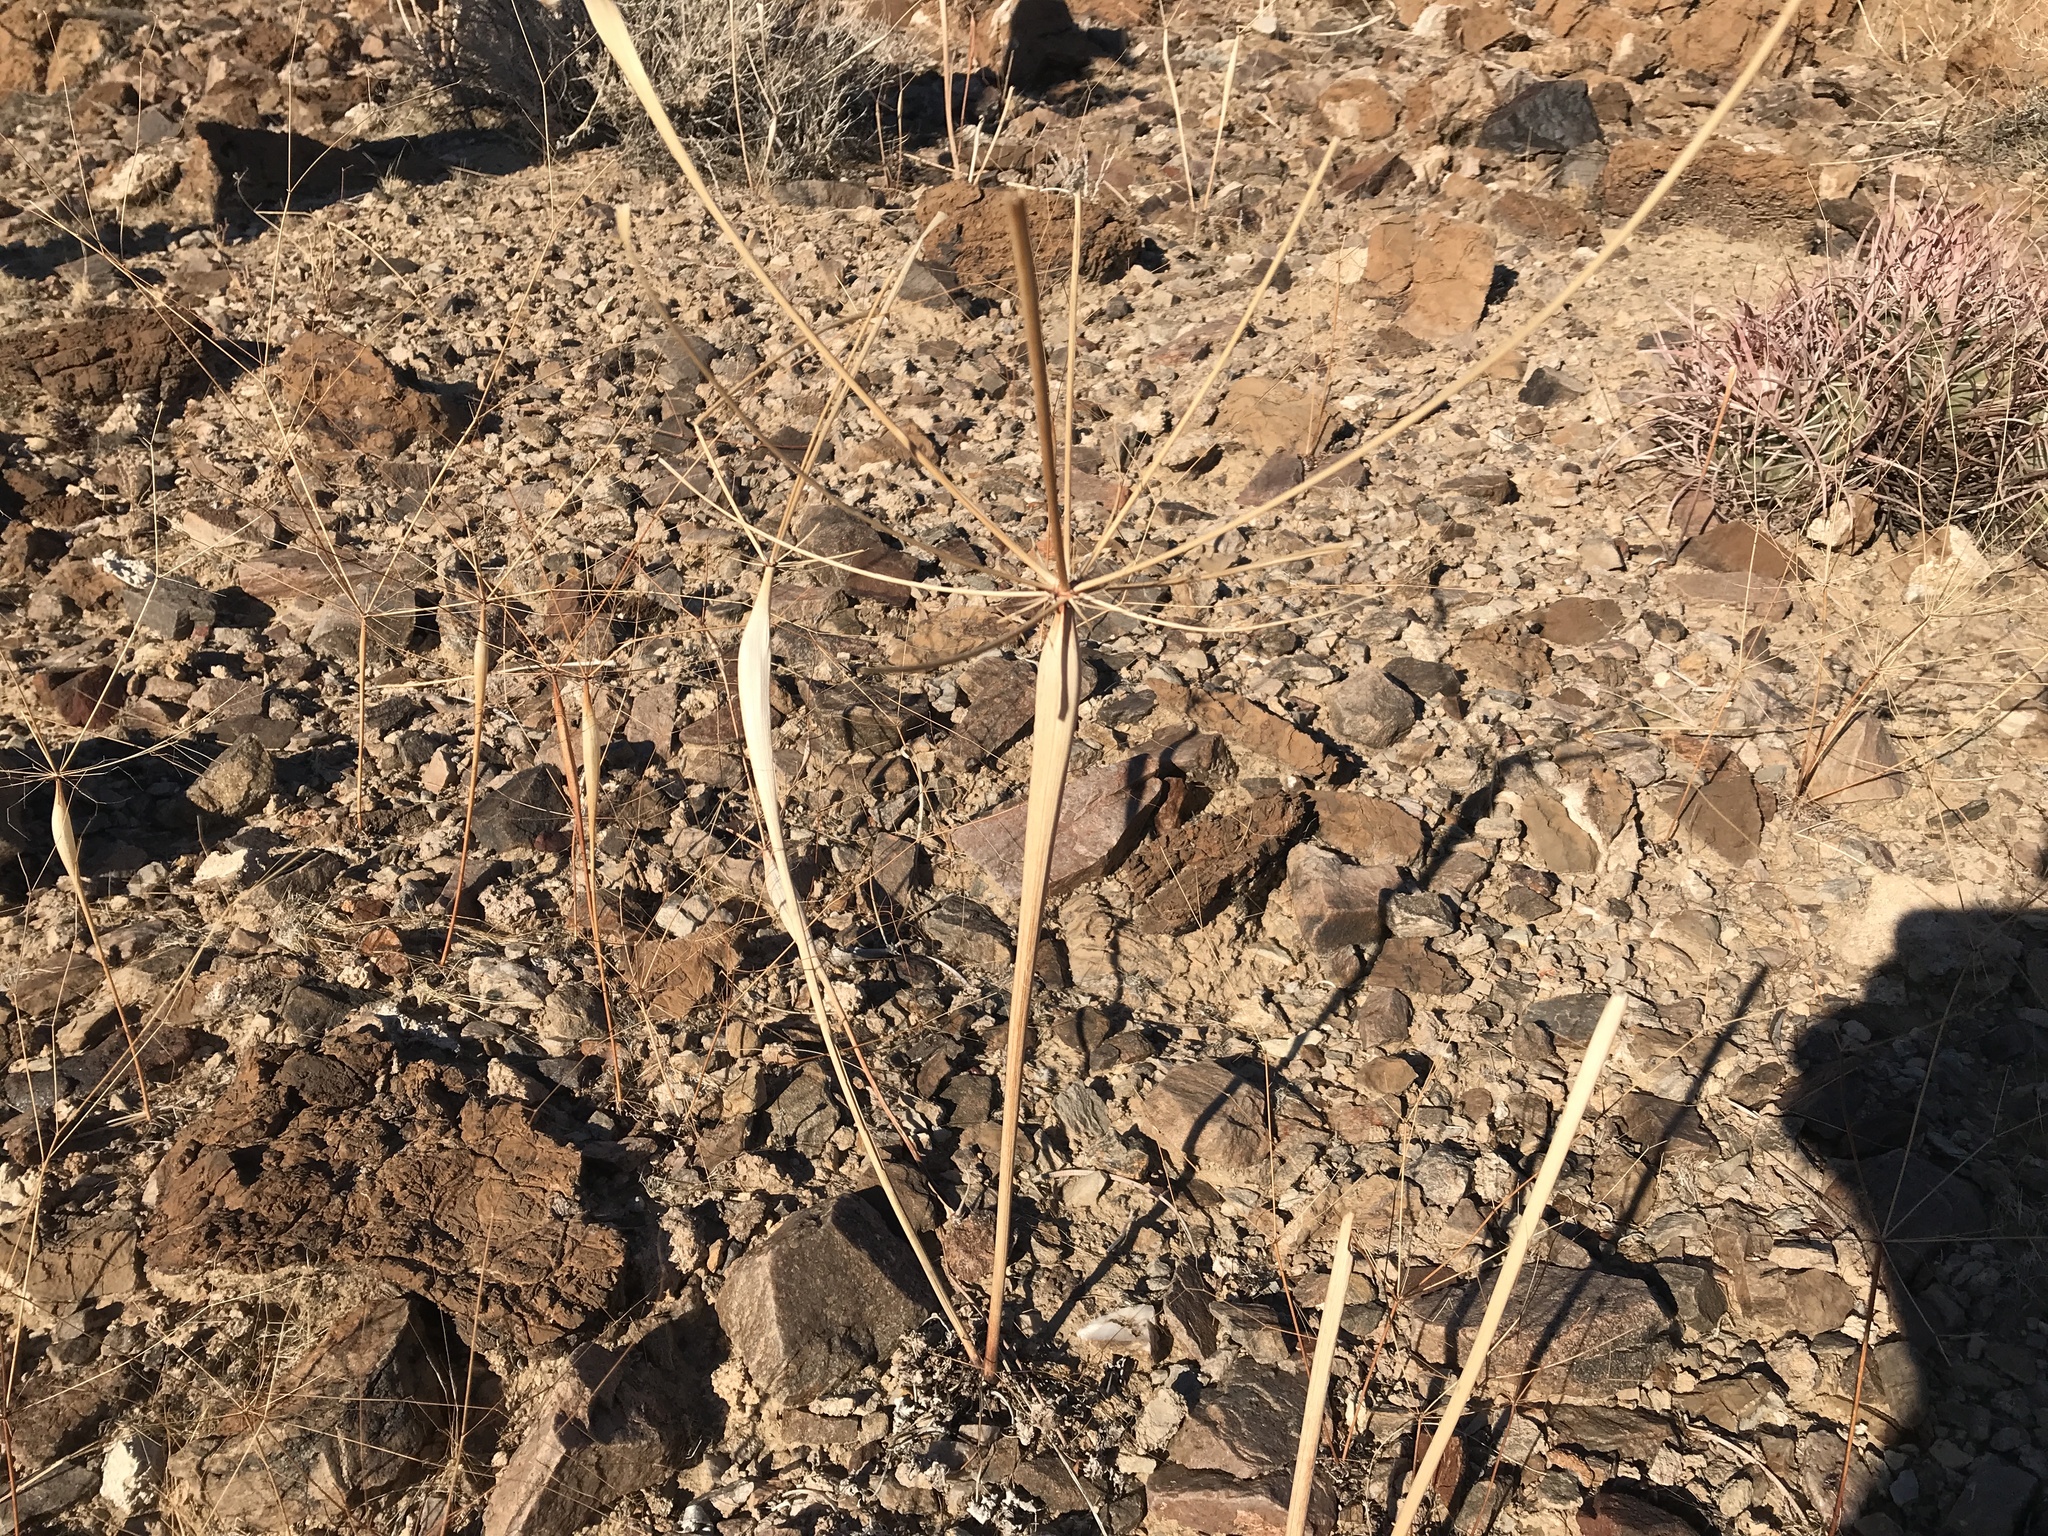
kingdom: Plantae
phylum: Tracheophyta
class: Magnoliopsida
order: Caryophyllales
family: Polygonaceae
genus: Eriogonum
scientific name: Eriogonum inflatum
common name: Desert trumpet
